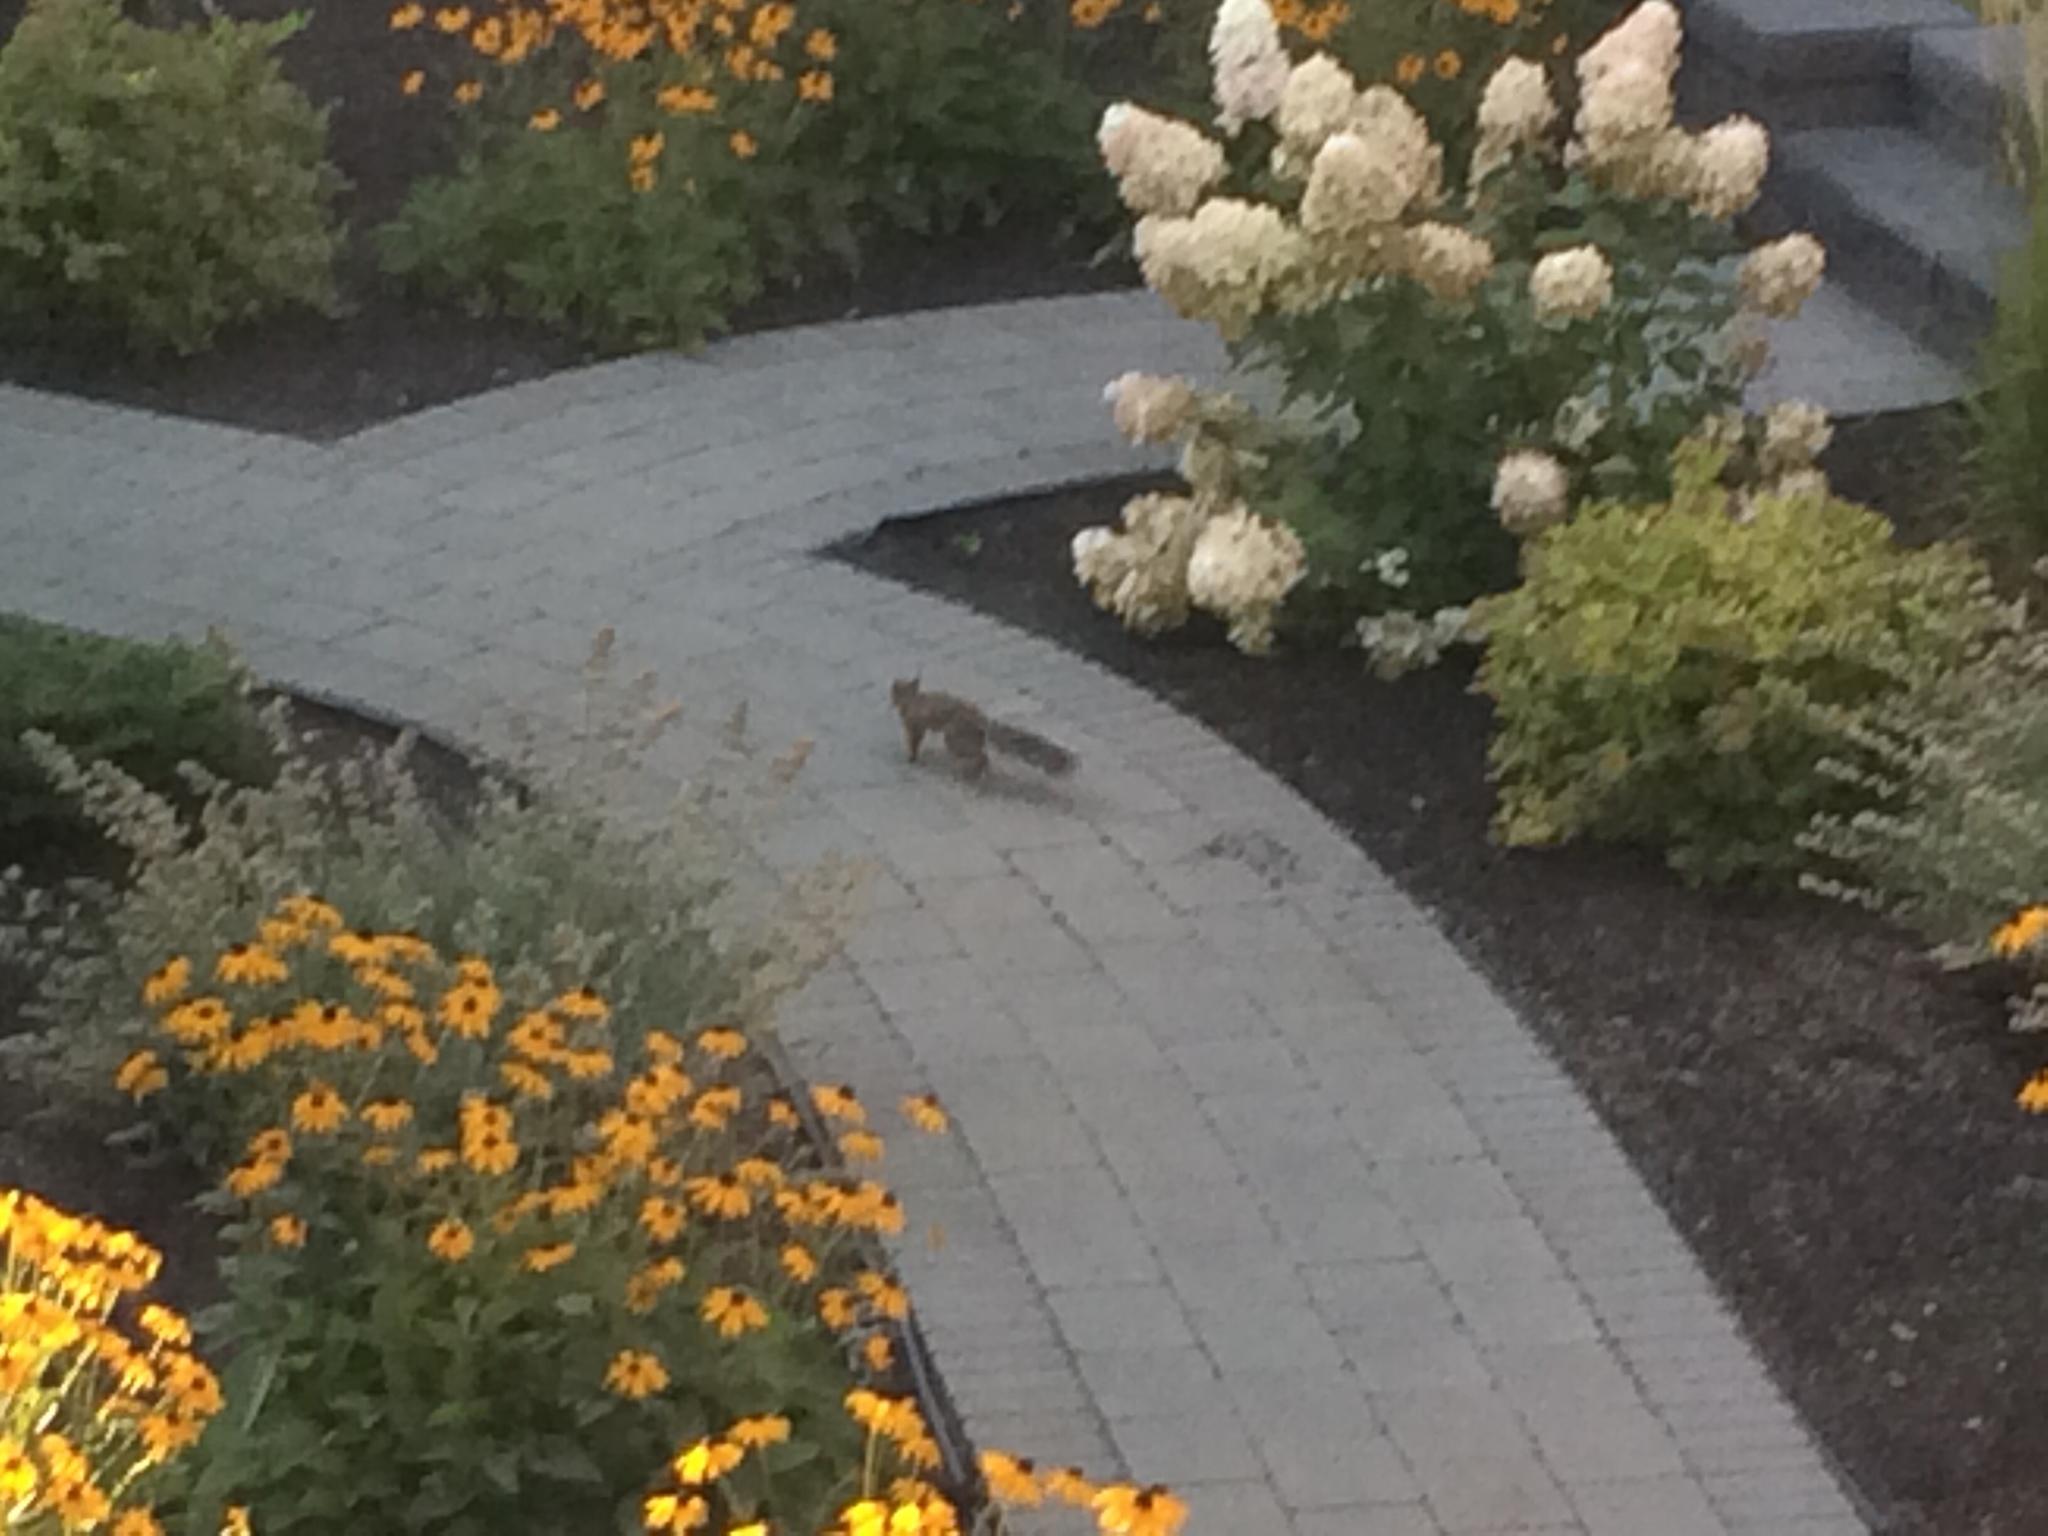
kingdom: Animalia
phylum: Chordata
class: Mammalia
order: Rodentia
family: Sciuridae
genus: Sciurus
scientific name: Sciurus carolinensis
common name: Eastern gray squirrel
